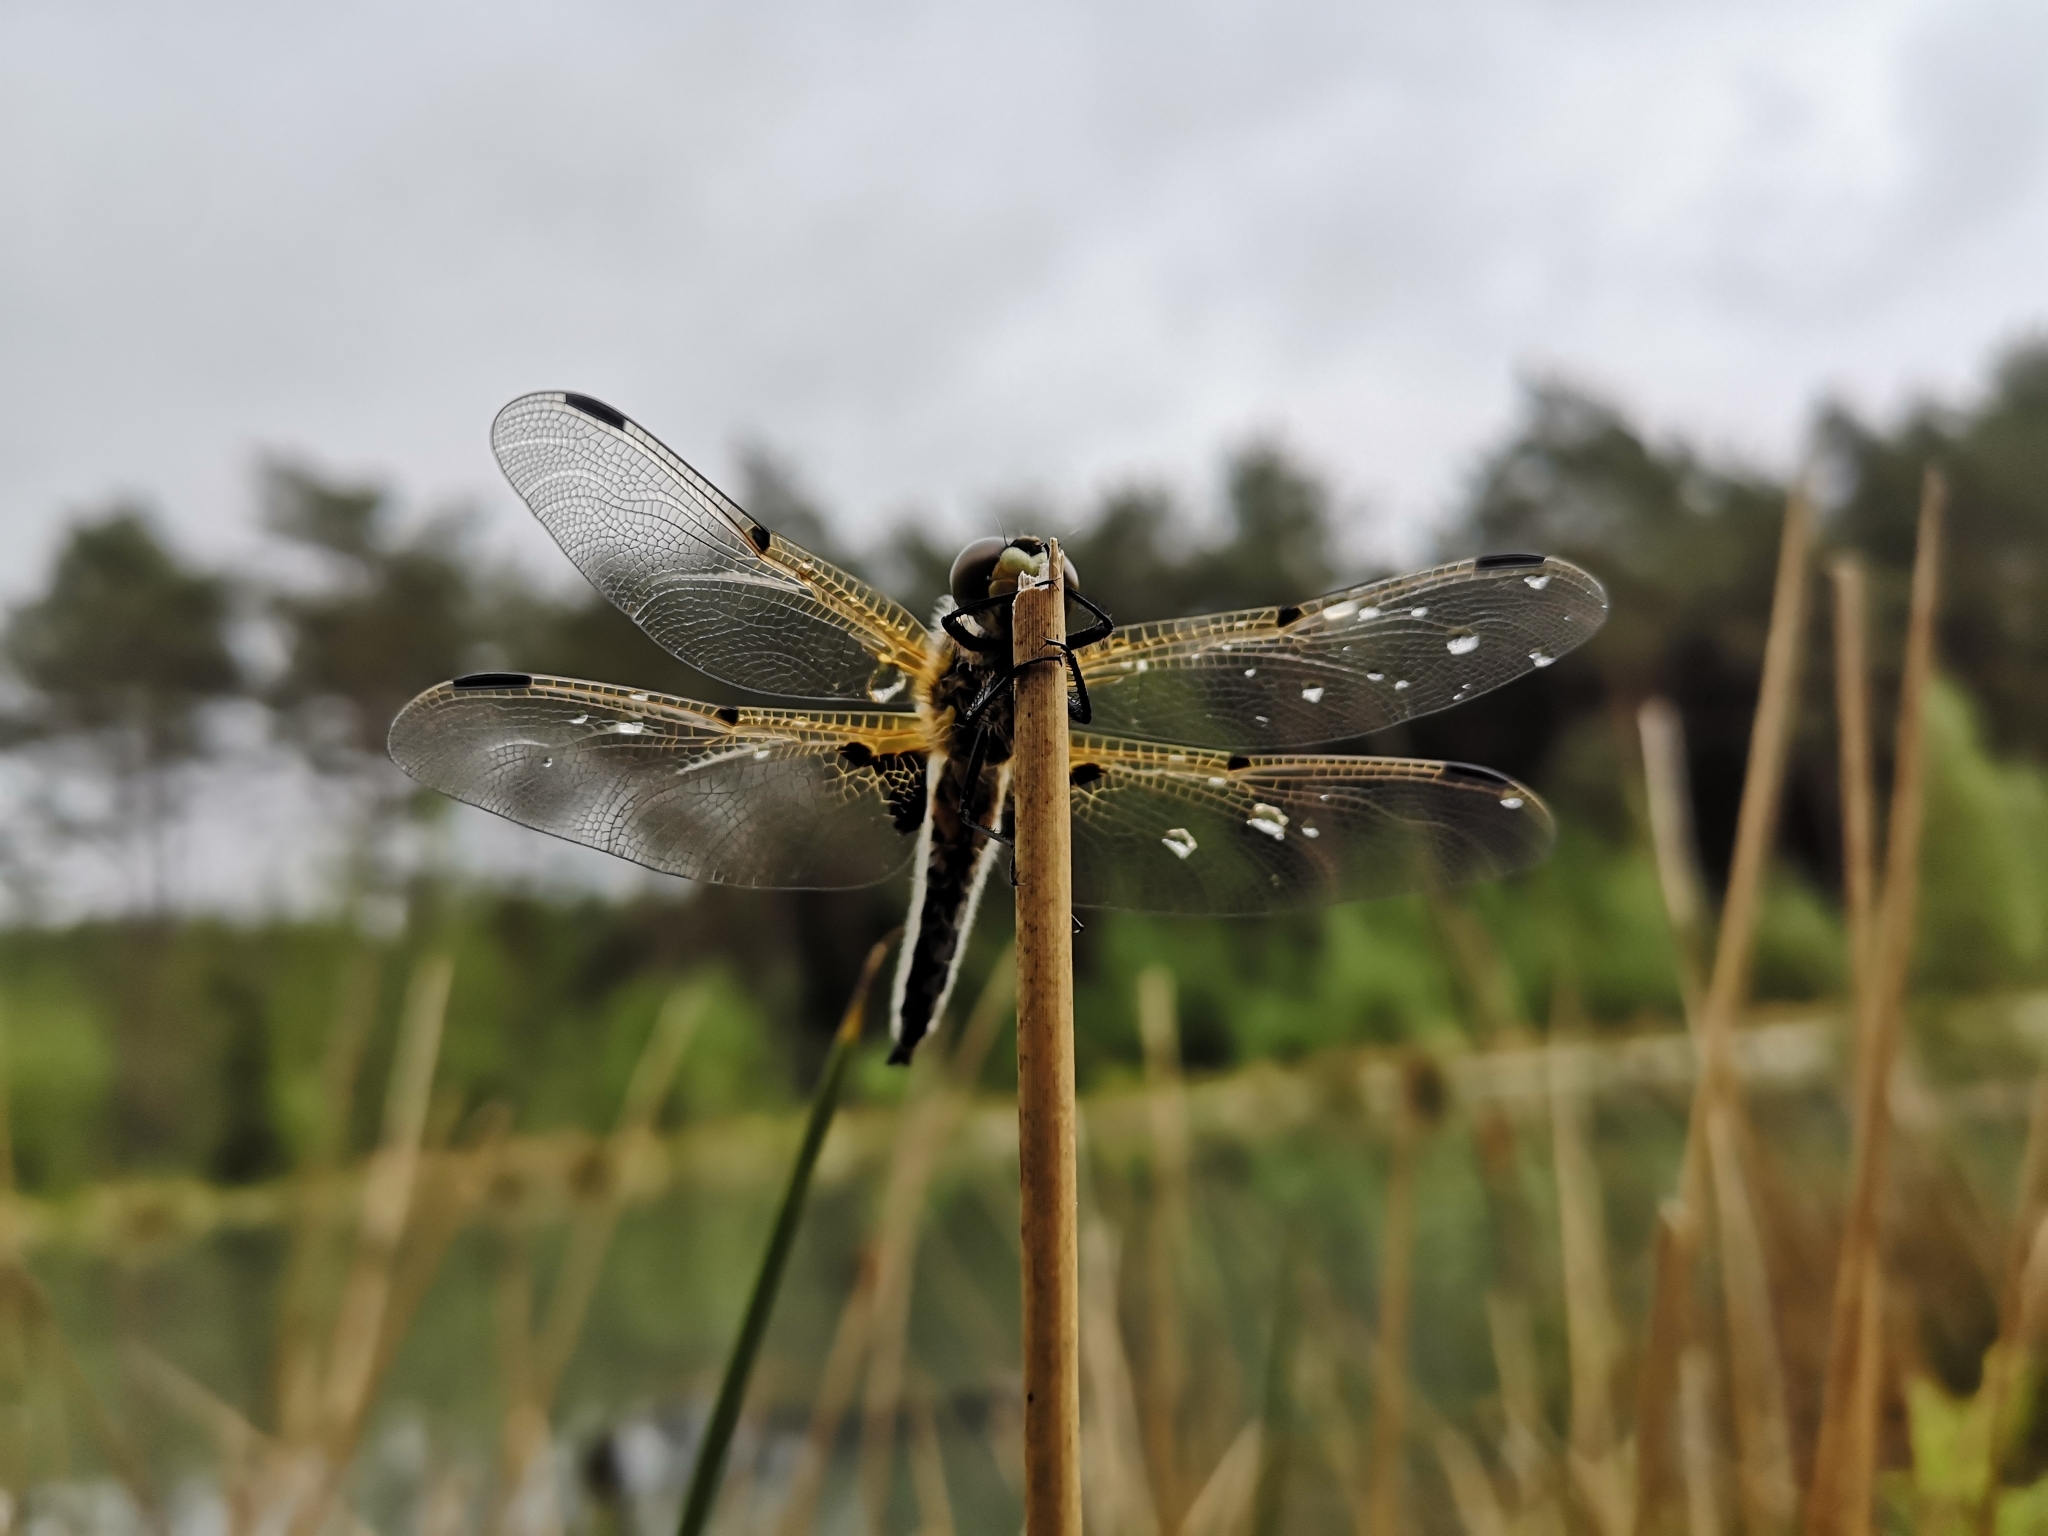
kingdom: Animalia
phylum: Arthropoda
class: Insecta
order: Odonata
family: Libellulidae
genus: Libellula
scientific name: Libellula quadrimaculata
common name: Four-spotted chaser
